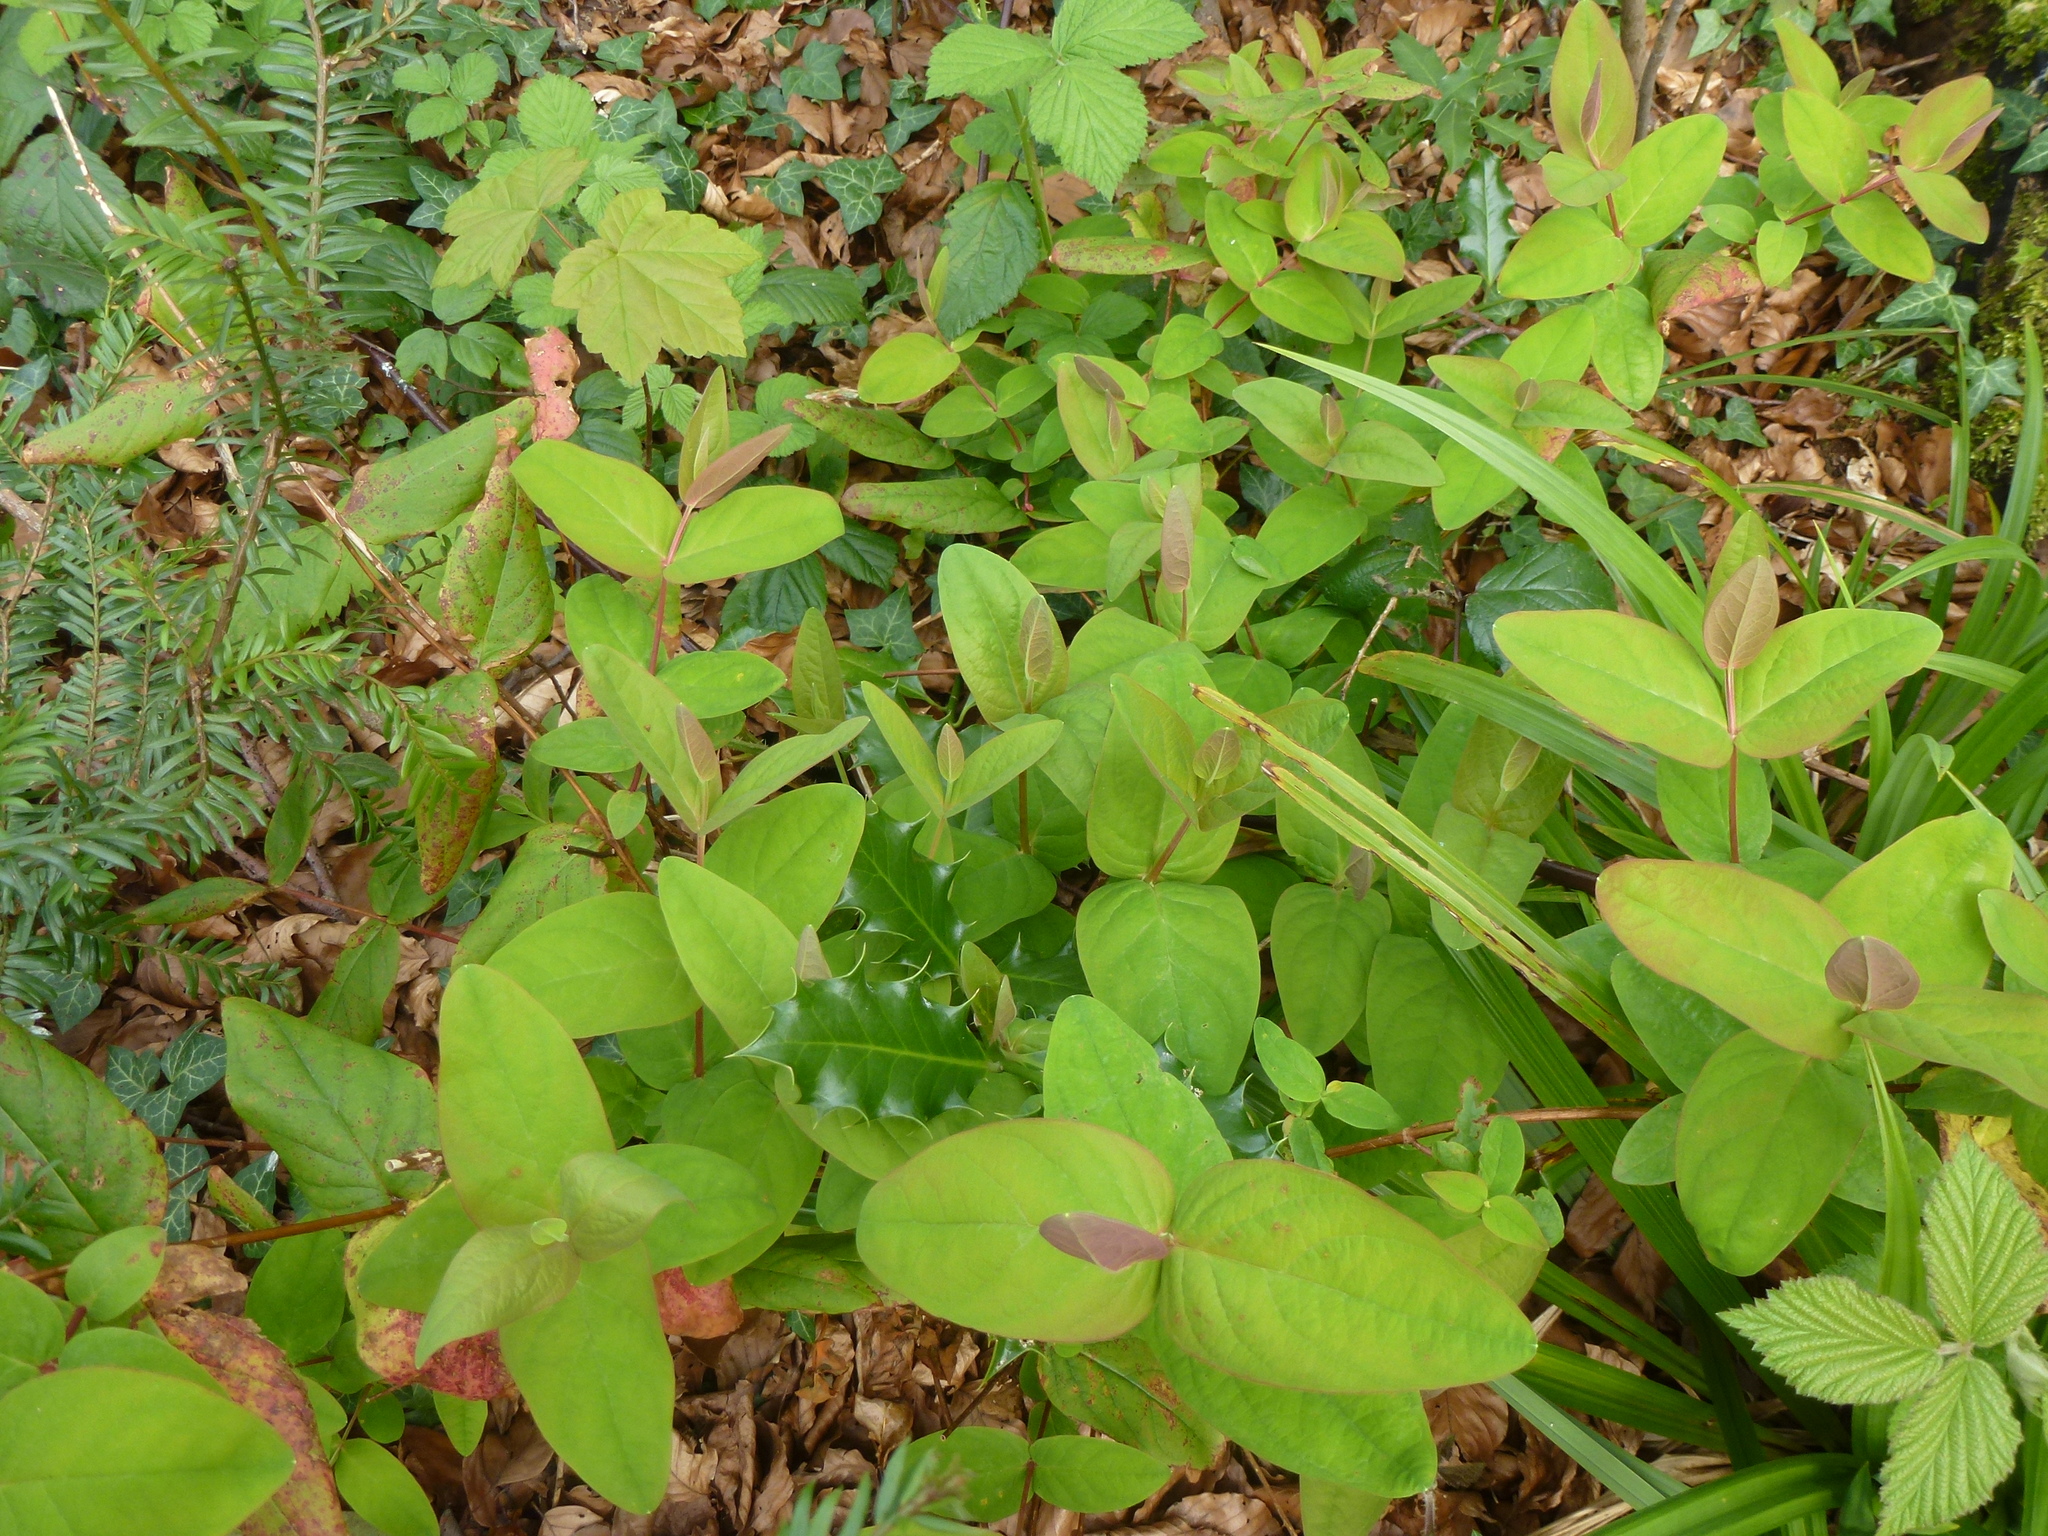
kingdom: Plantae
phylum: Tracheophyta
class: Magnoliopsida
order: Malpighiales
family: Hypericaceae
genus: Hypericum
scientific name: Hypericum androsaemum
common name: Sweet-amber
